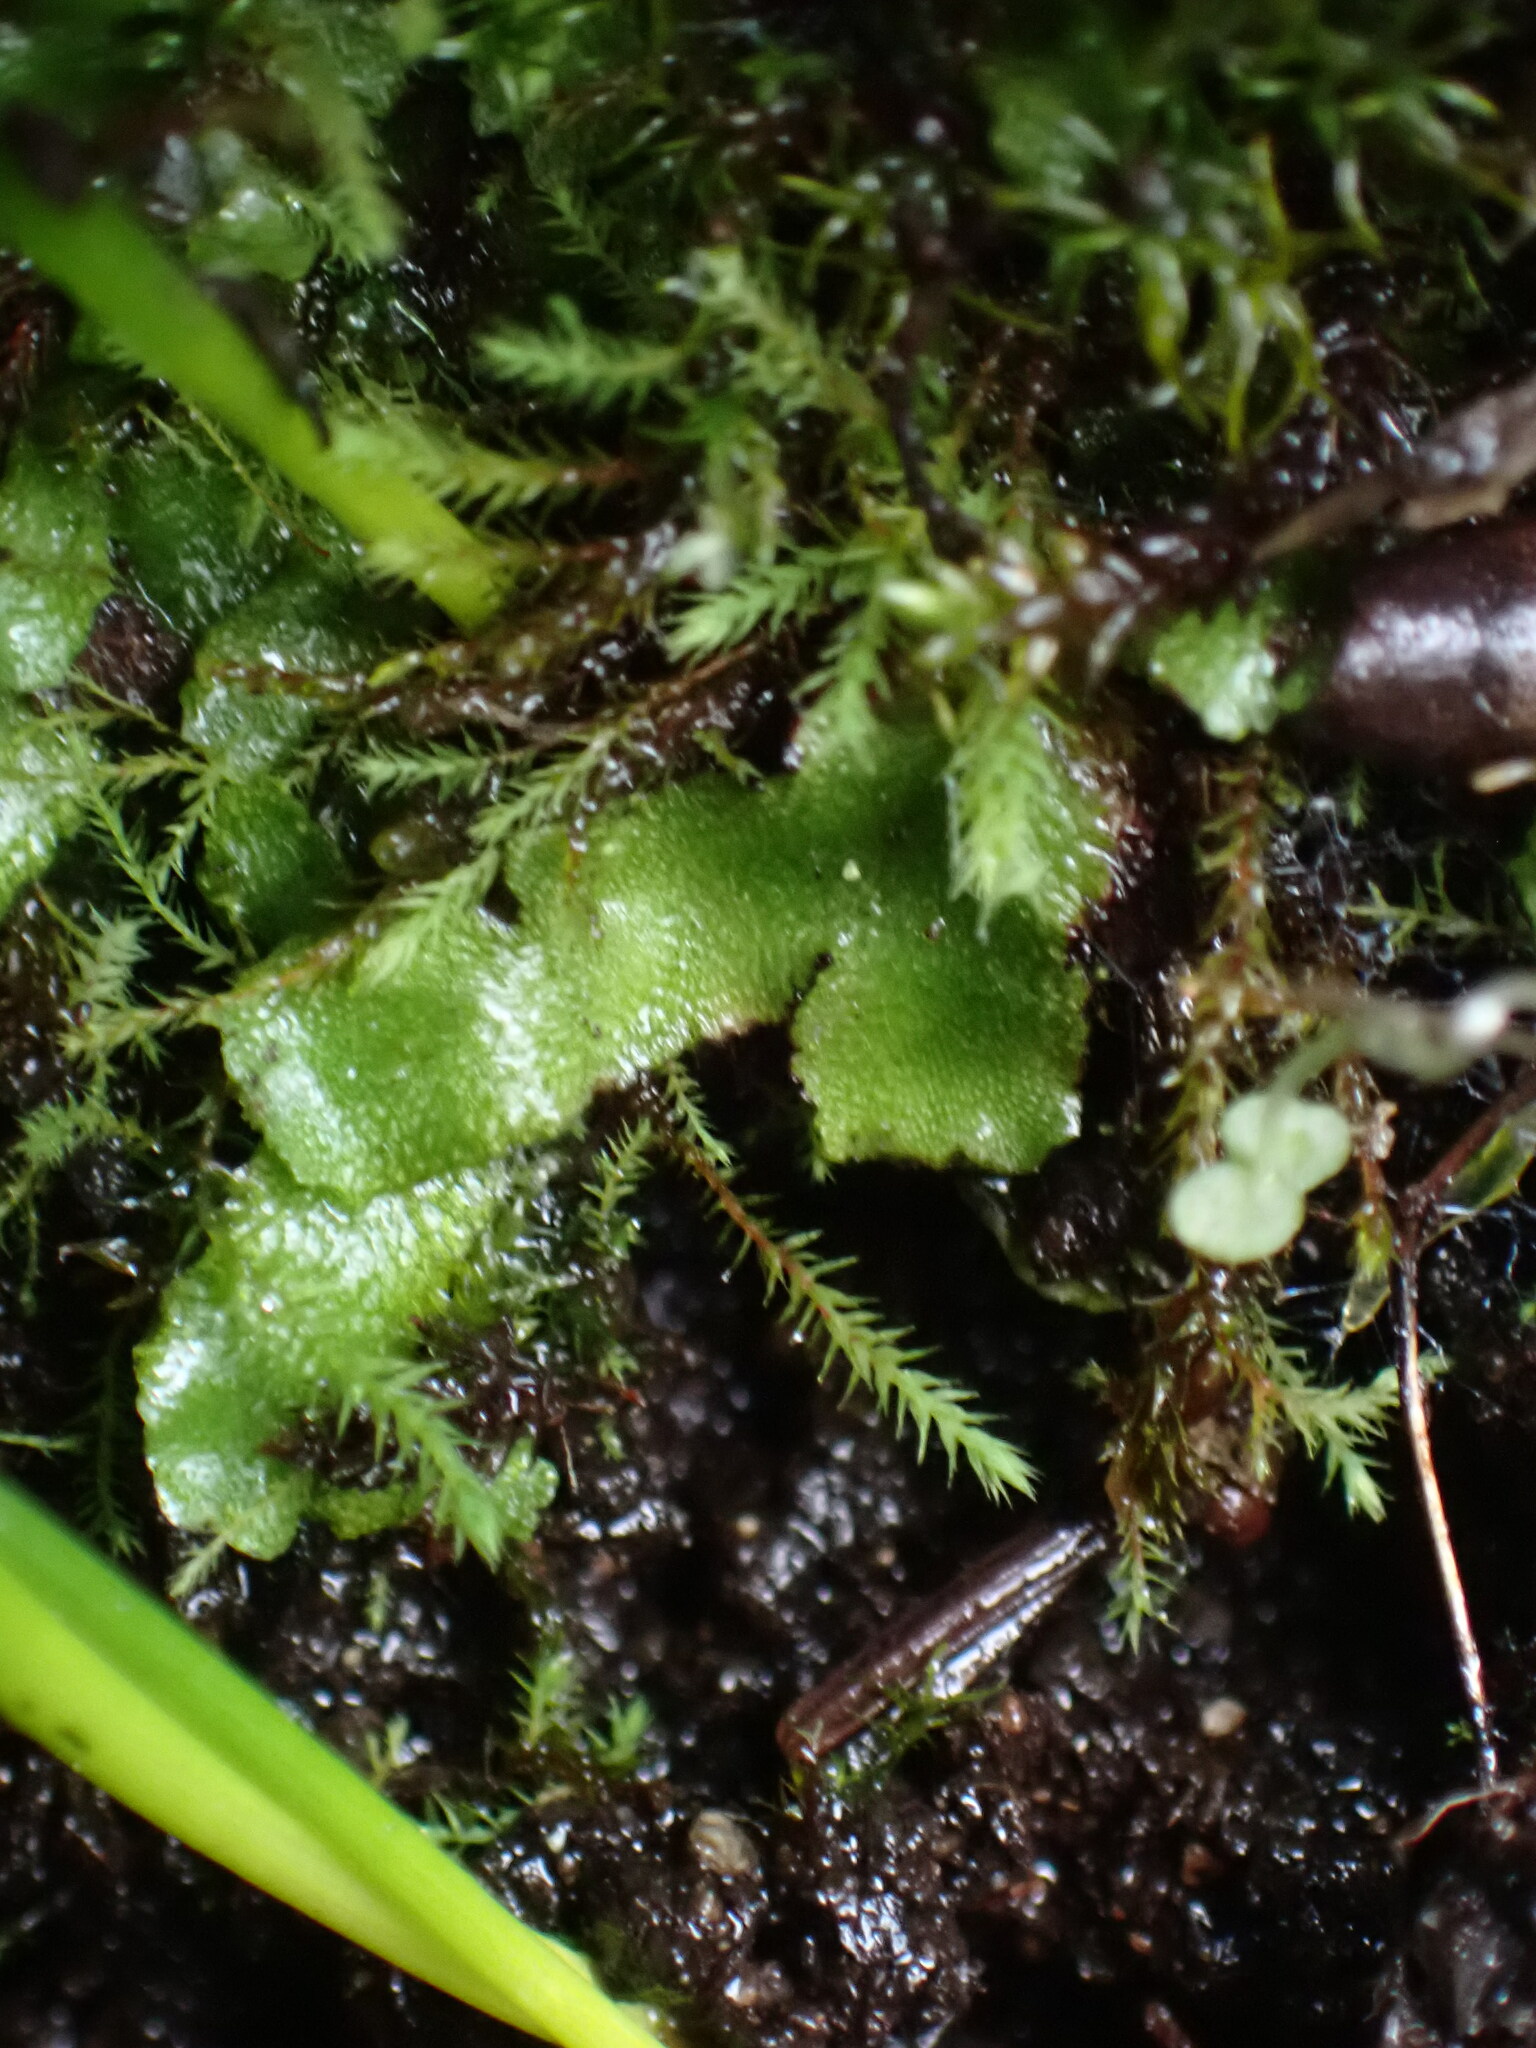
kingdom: Plantae
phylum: Marchantiophyta
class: Marchantiopsida
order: Marchantiales
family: Aytoniaceae
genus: Mannia
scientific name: Mannia gracilis
